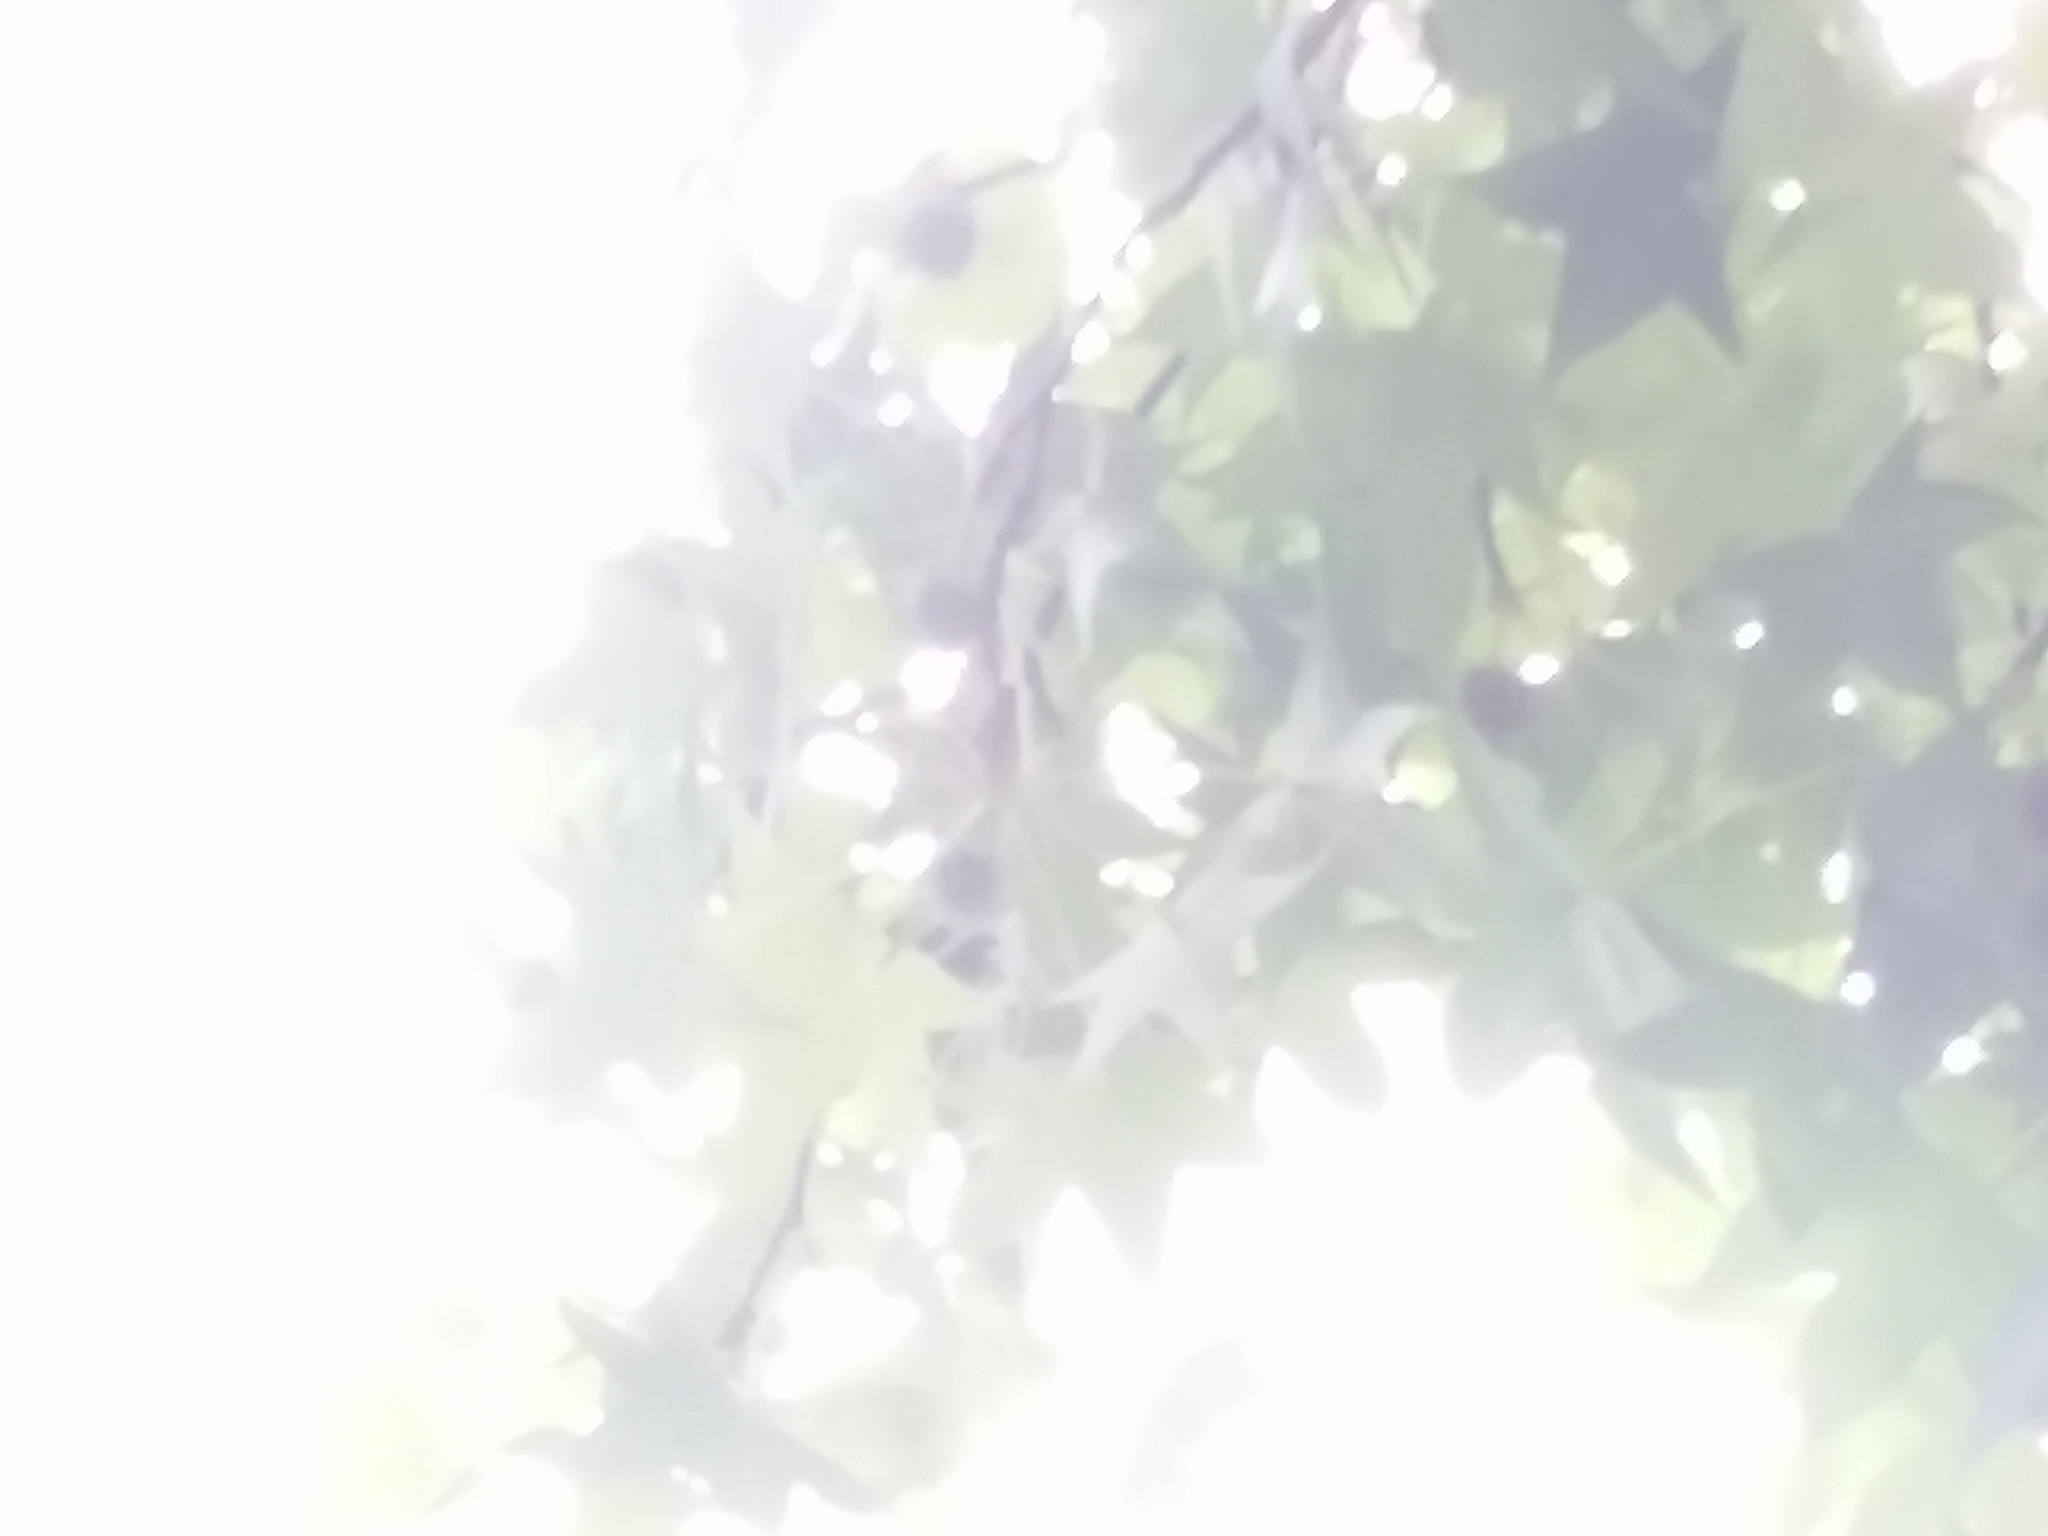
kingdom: Plantae
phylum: Tracheophyta
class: Magnoliopsida
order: Saxifragales
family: Altingiaceae
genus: Liquidambar
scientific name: Liquidambar styraciflua
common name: Sweet gum
